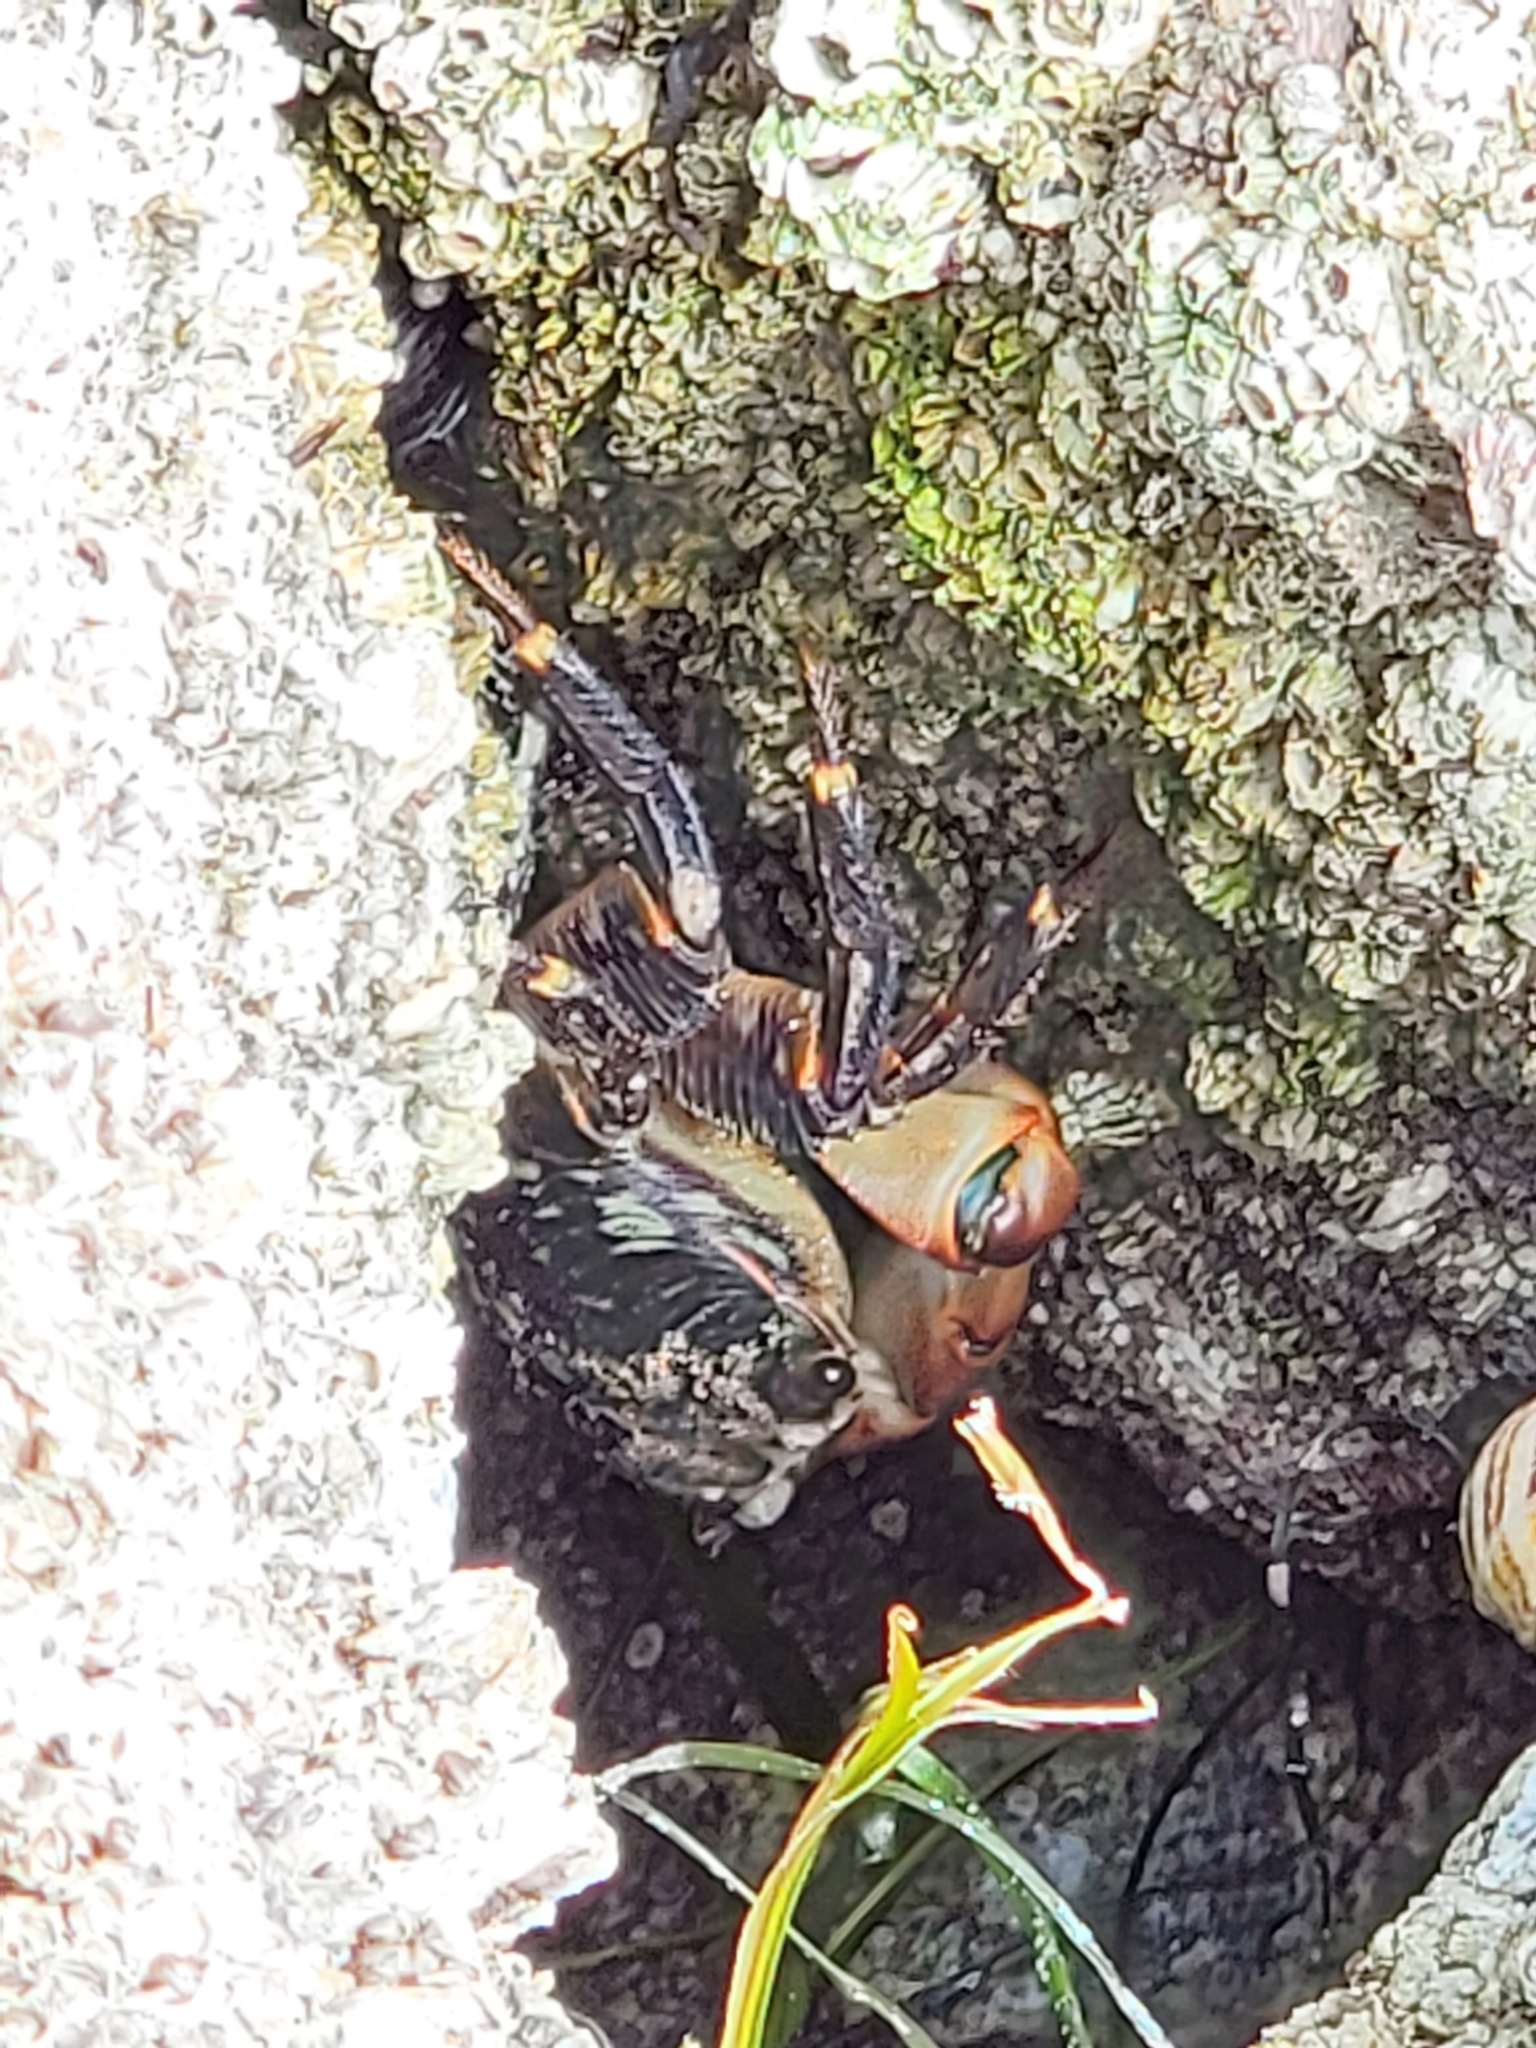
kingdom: Animalia
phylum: Arthropoda
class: Malacostraca
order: Decapoda
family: Grapsidae
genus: Pachygrapsus
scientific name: Pachygrapsus crassipes
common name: Striped shore crab
